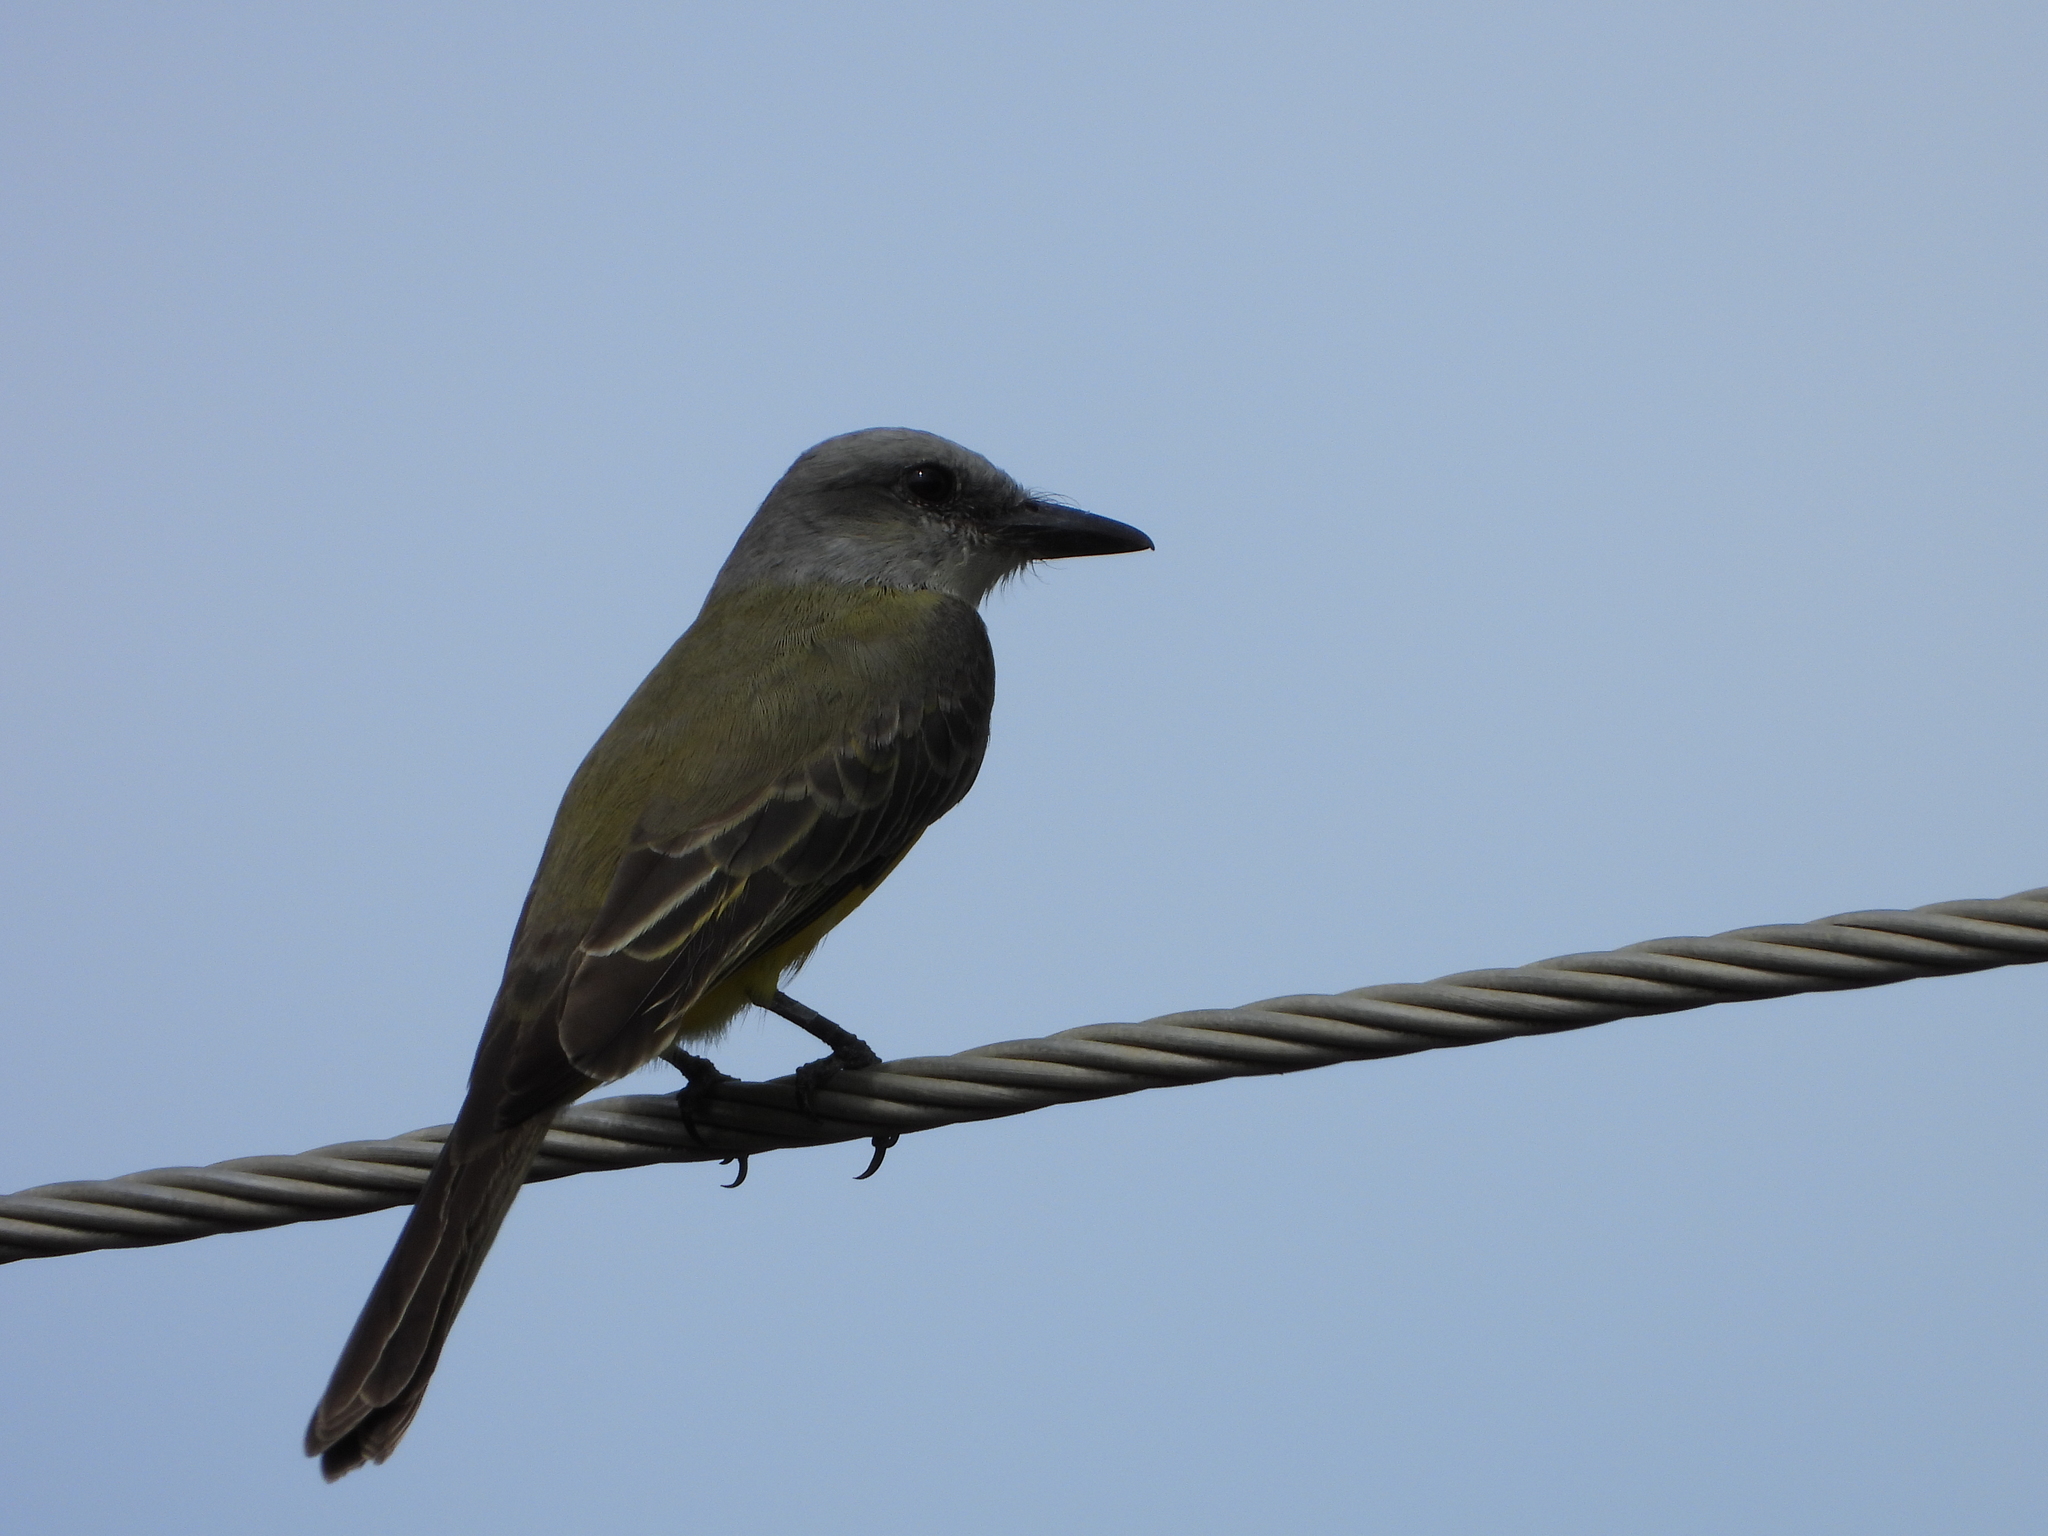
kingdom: Animalia
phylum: Chordata
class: Aves
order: Passeriformes
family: Tyrannidae
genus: Tyrannus
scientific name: Tyrannus melancholicus
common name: Tropical kingbird
